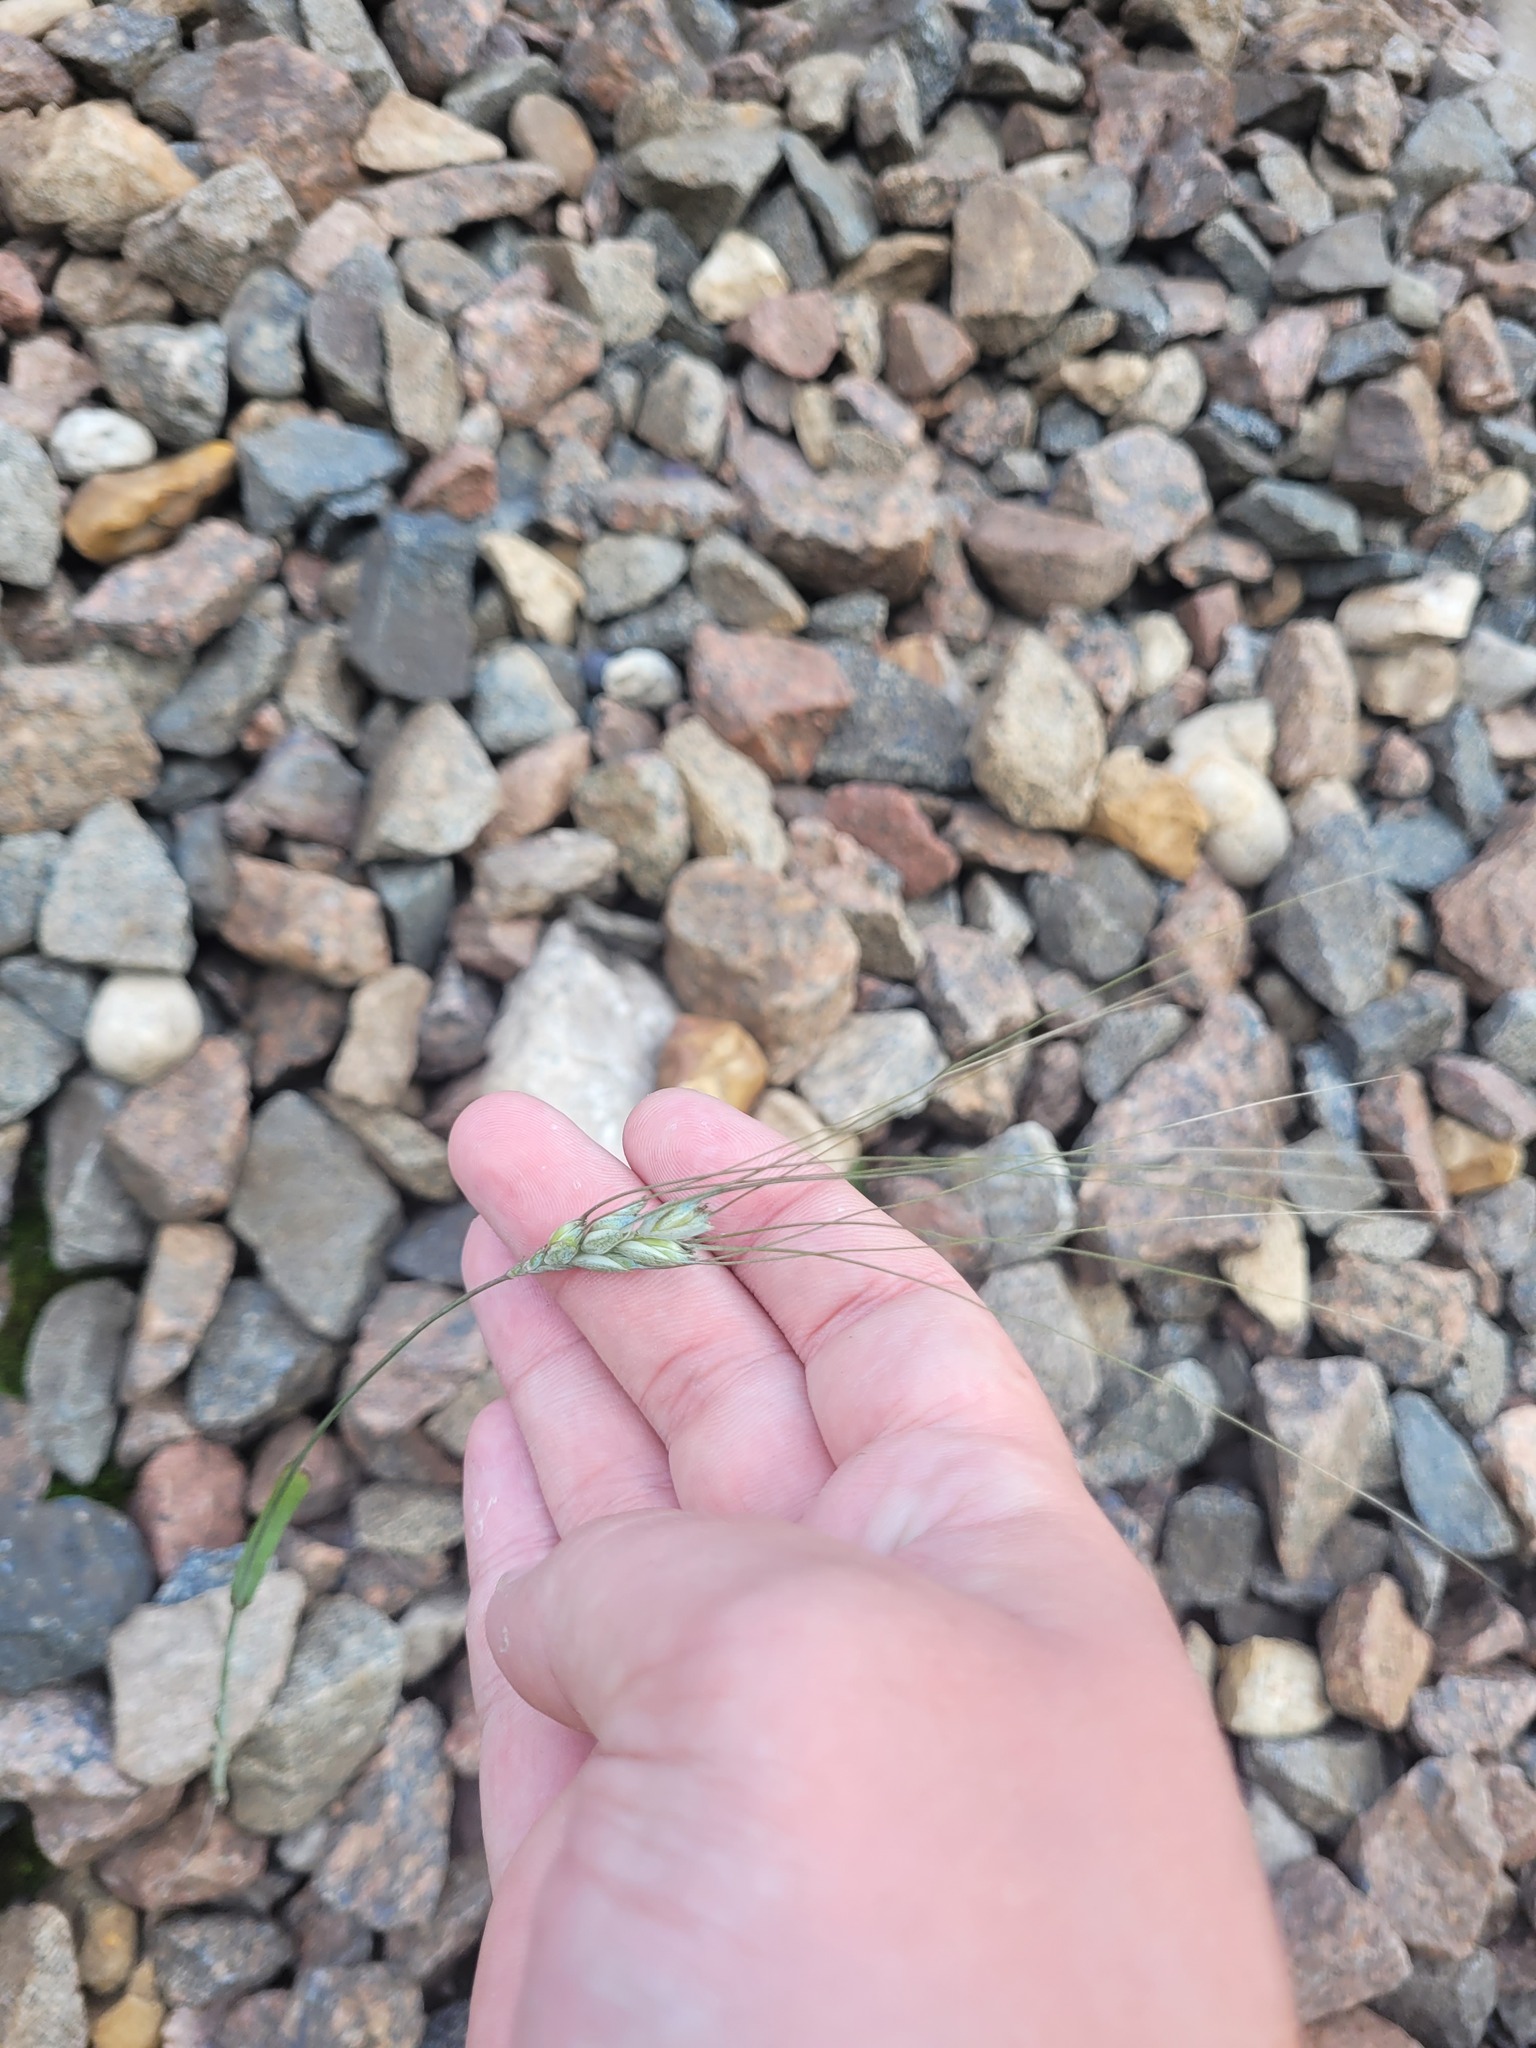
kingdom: Plantae
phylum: Tracheophyta
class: Liliopsida
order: Poales
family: Poaceae
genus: Triticum
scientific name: Triticum aestivum
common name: Common wheat
